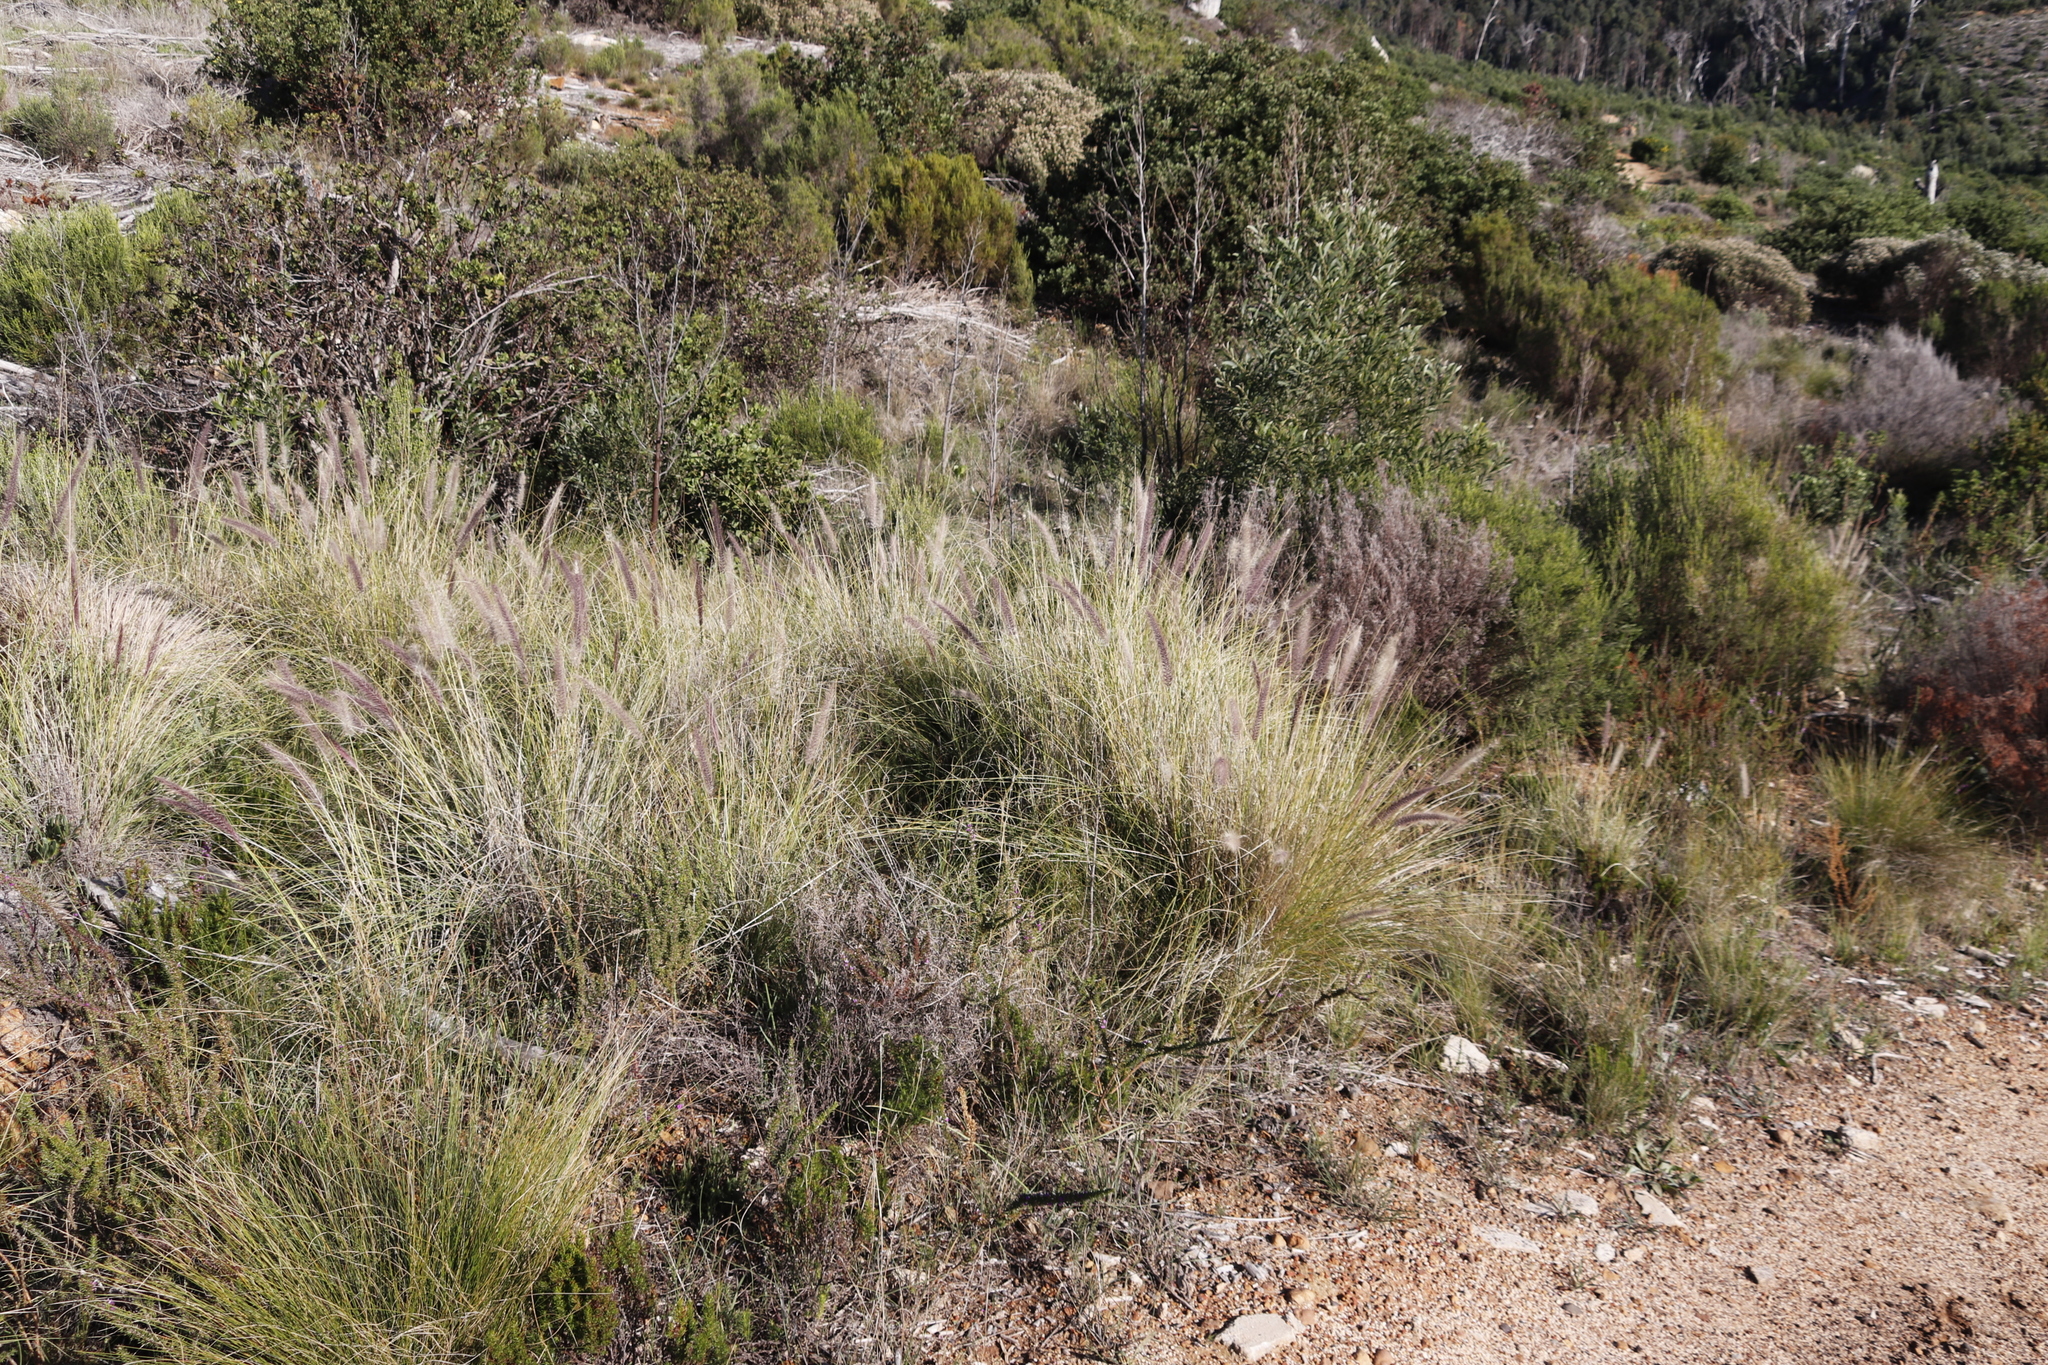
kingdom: Plantae
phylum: Tracheophyta
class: Liliopsida
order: Poales
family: Poaceae
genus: Cenchrus
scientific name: Cenchrus setaceus
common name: Crimson fountaingrass
